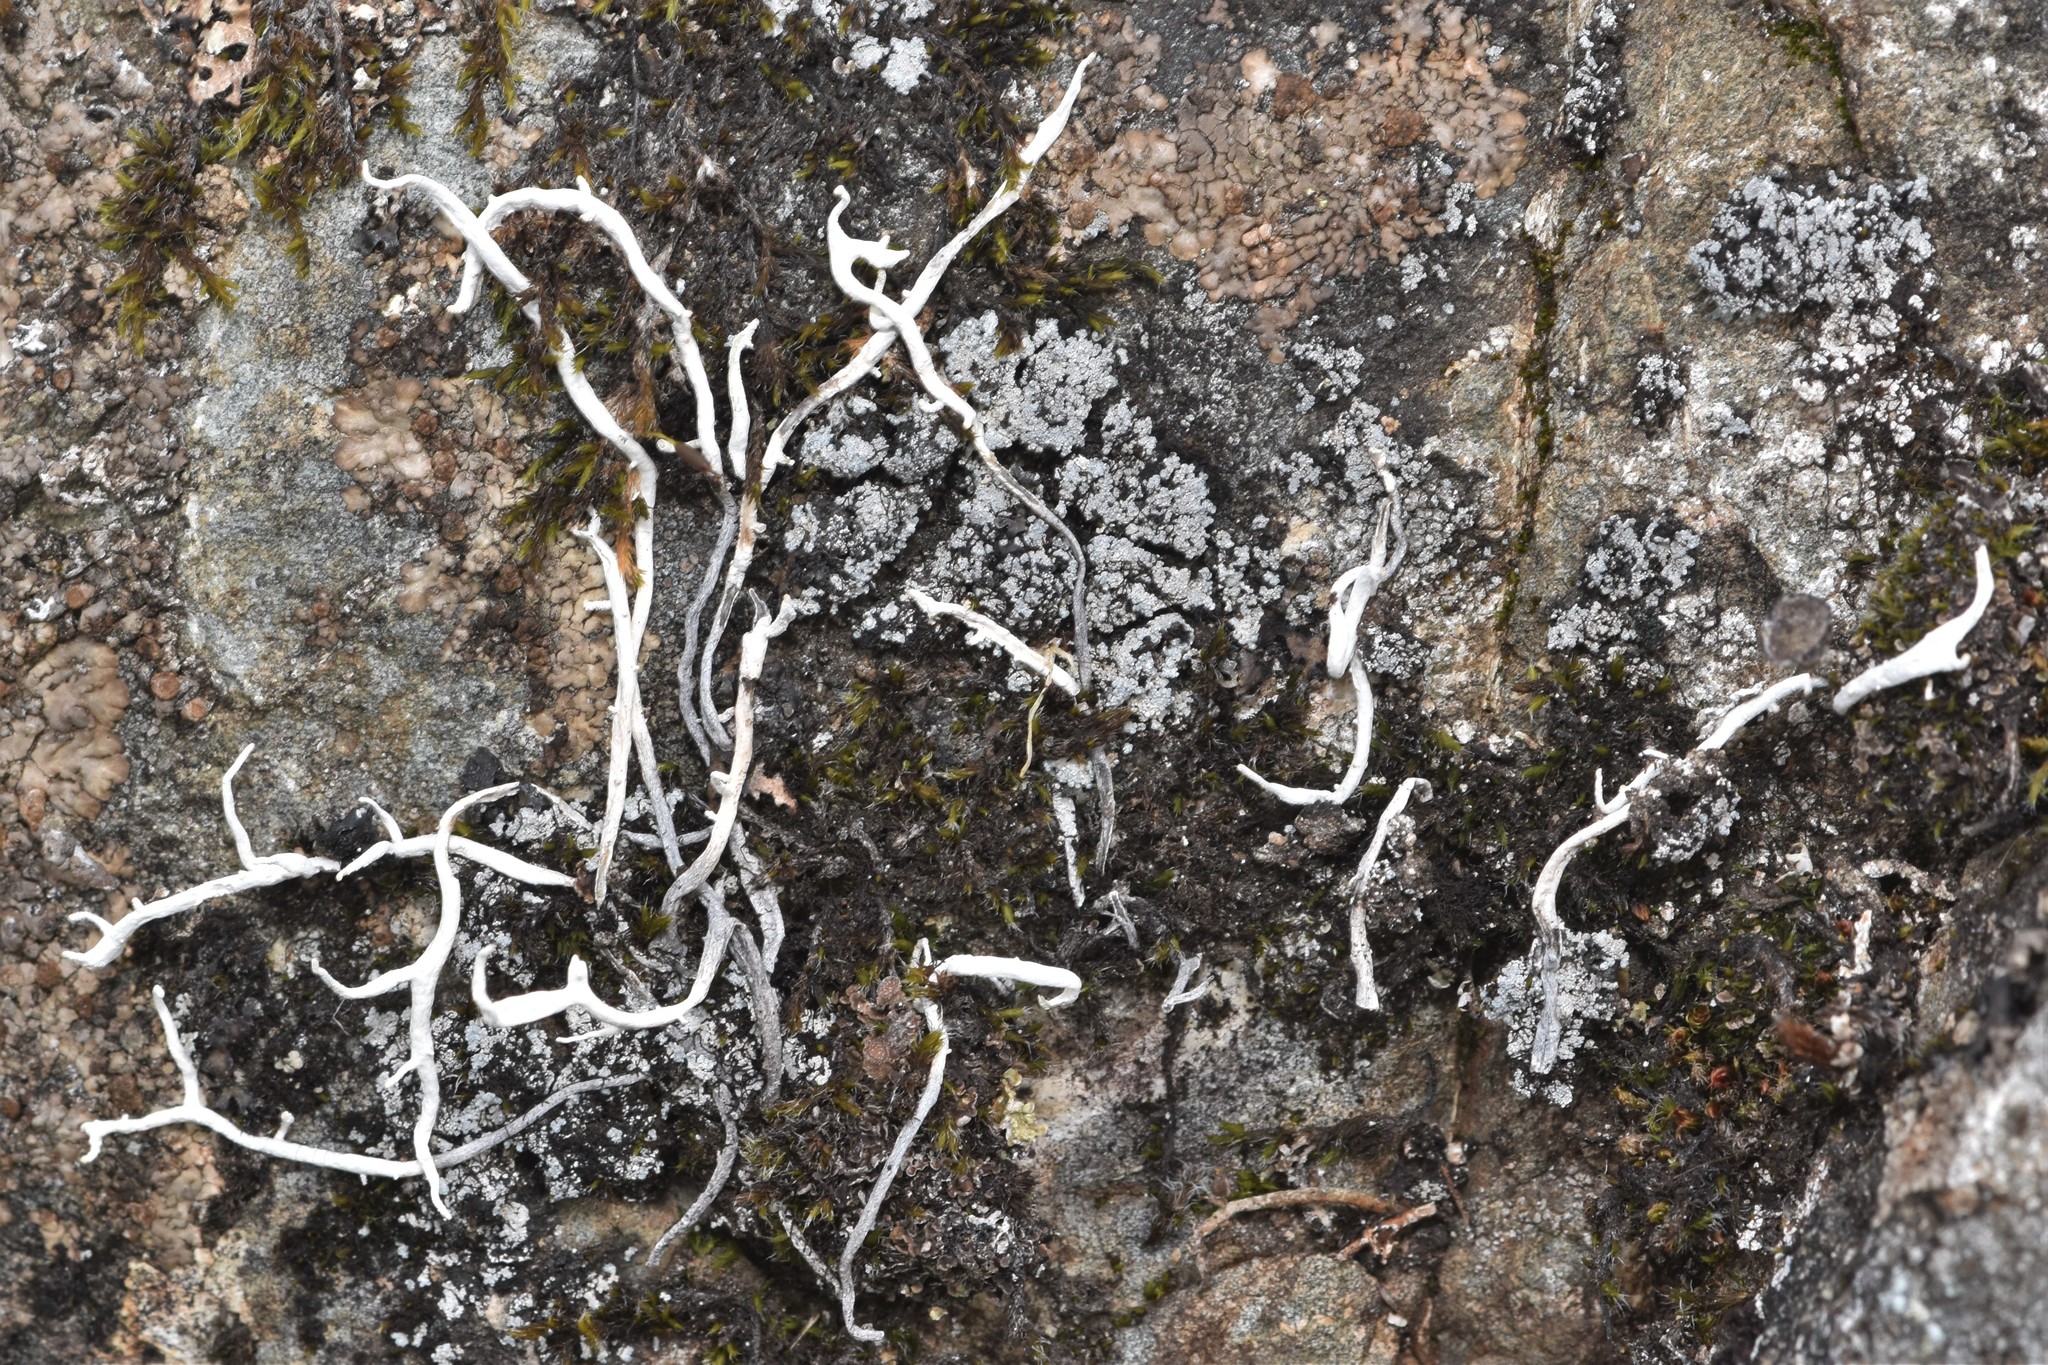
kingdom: Fungi
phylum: Ascomycota
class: Lecanoromycetes
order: Pertusariales
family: Icmadophilaceae
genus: Thamnolia
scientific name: Thamnolia vermicularis
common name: Whiteworm lichen
